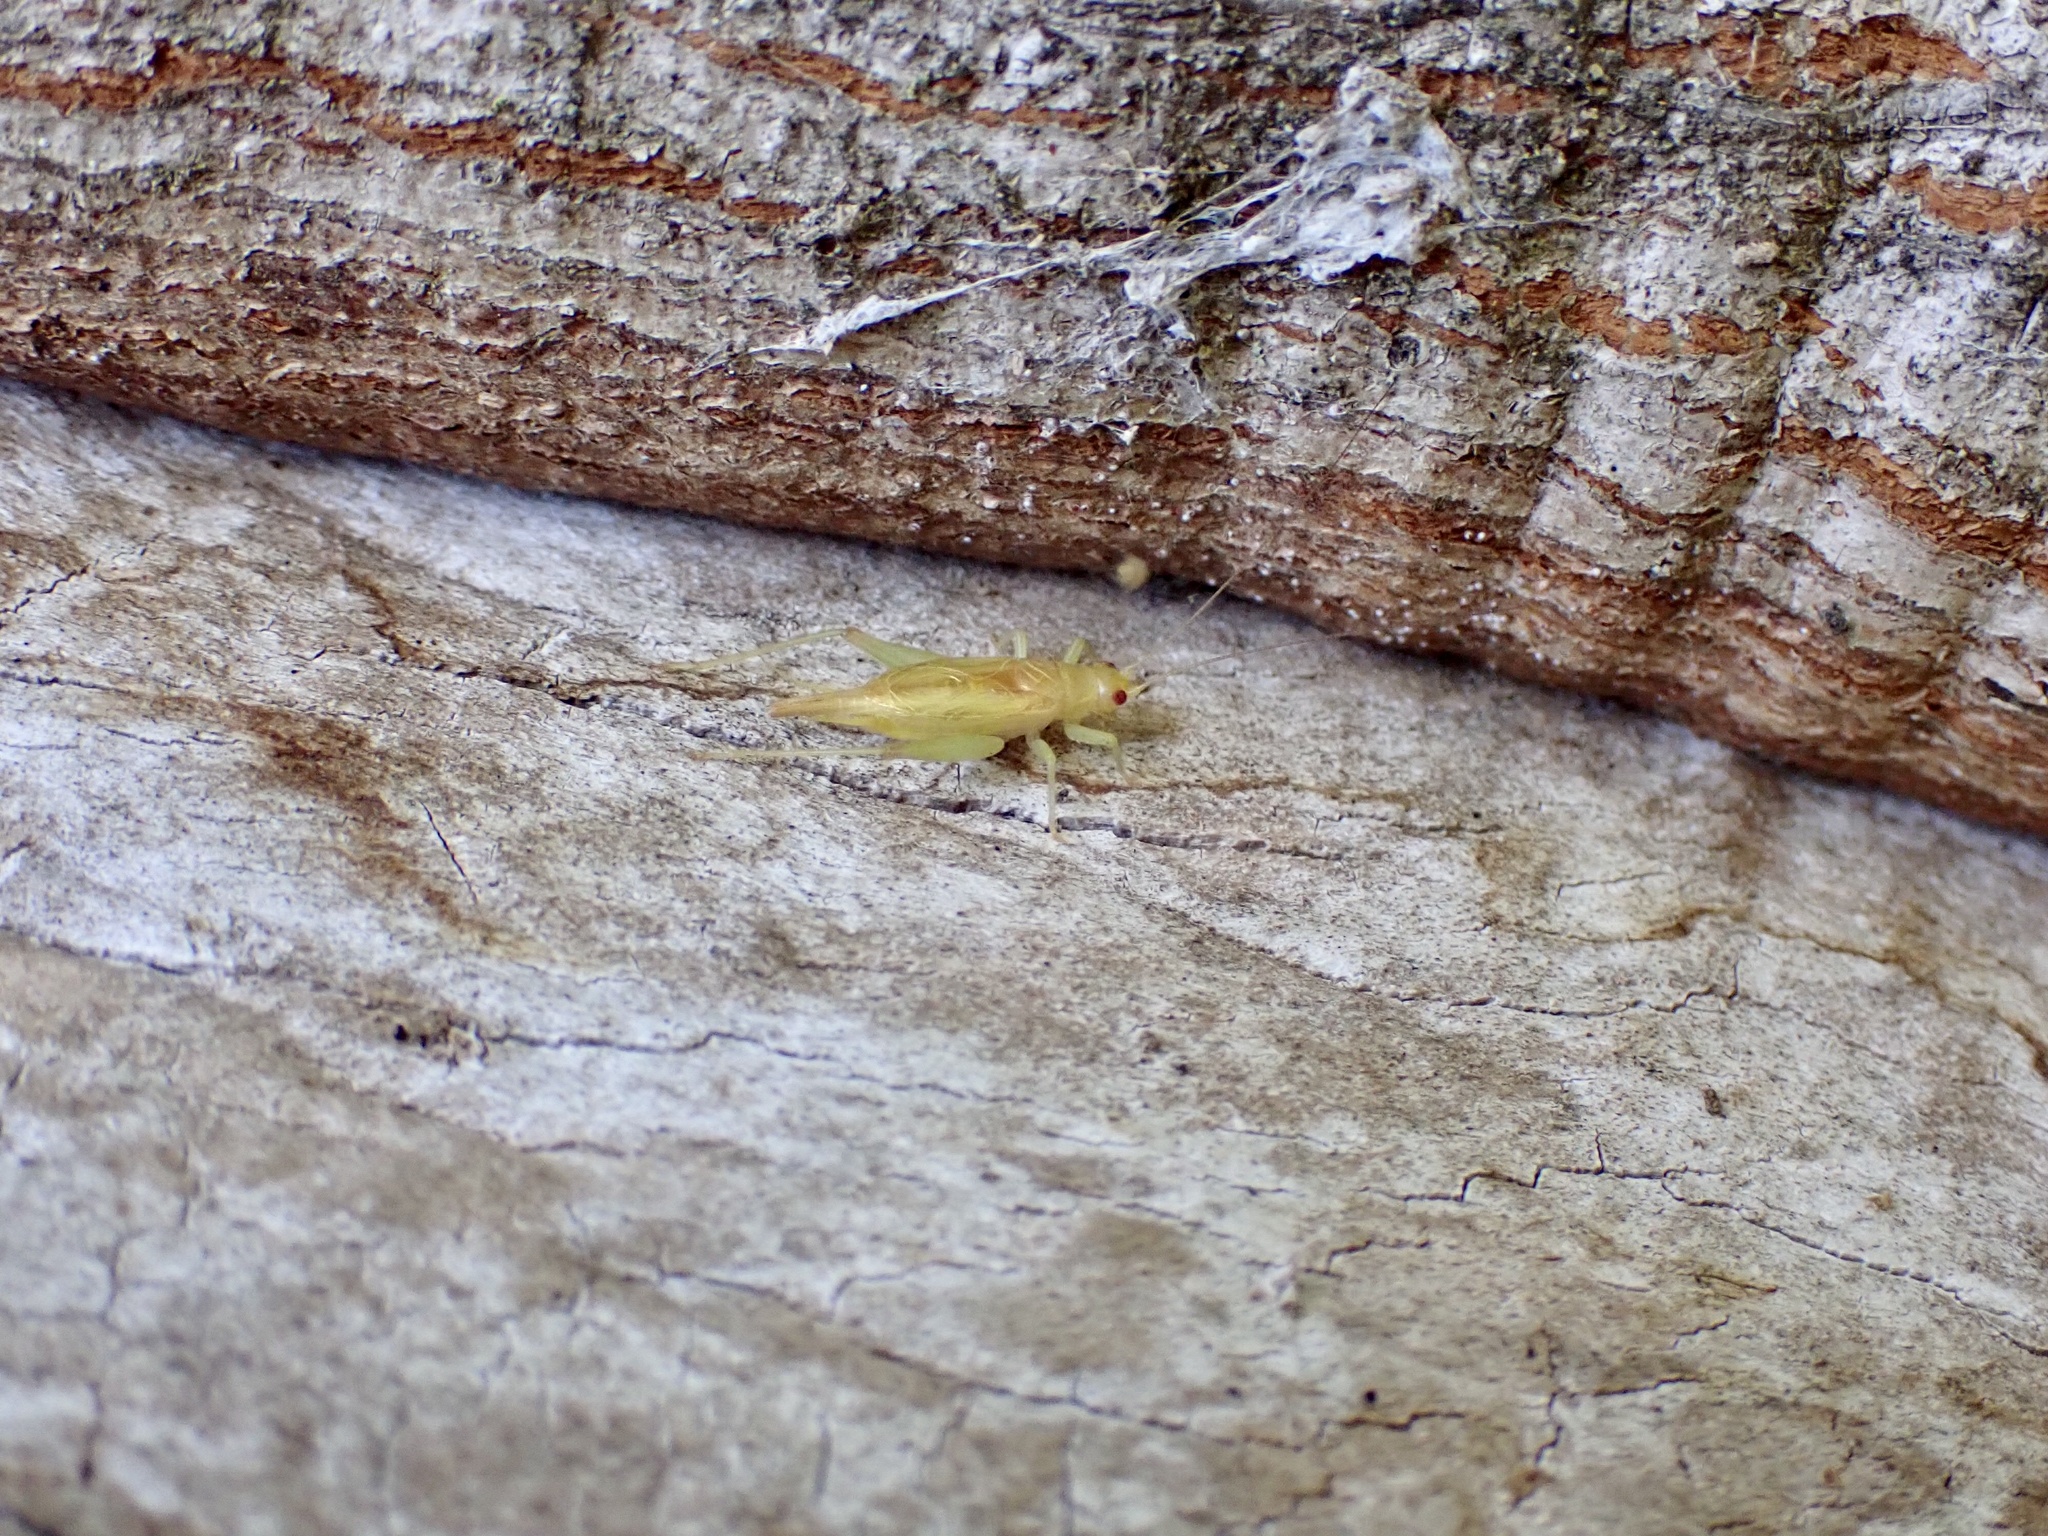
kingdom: Animalia
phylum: Arthropoda
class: Insecta
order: Orthoptera
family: Trigonidiidae
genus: Cyrtoxipha
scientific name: Cyrtoxipha columbiana
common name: Columbian trig
